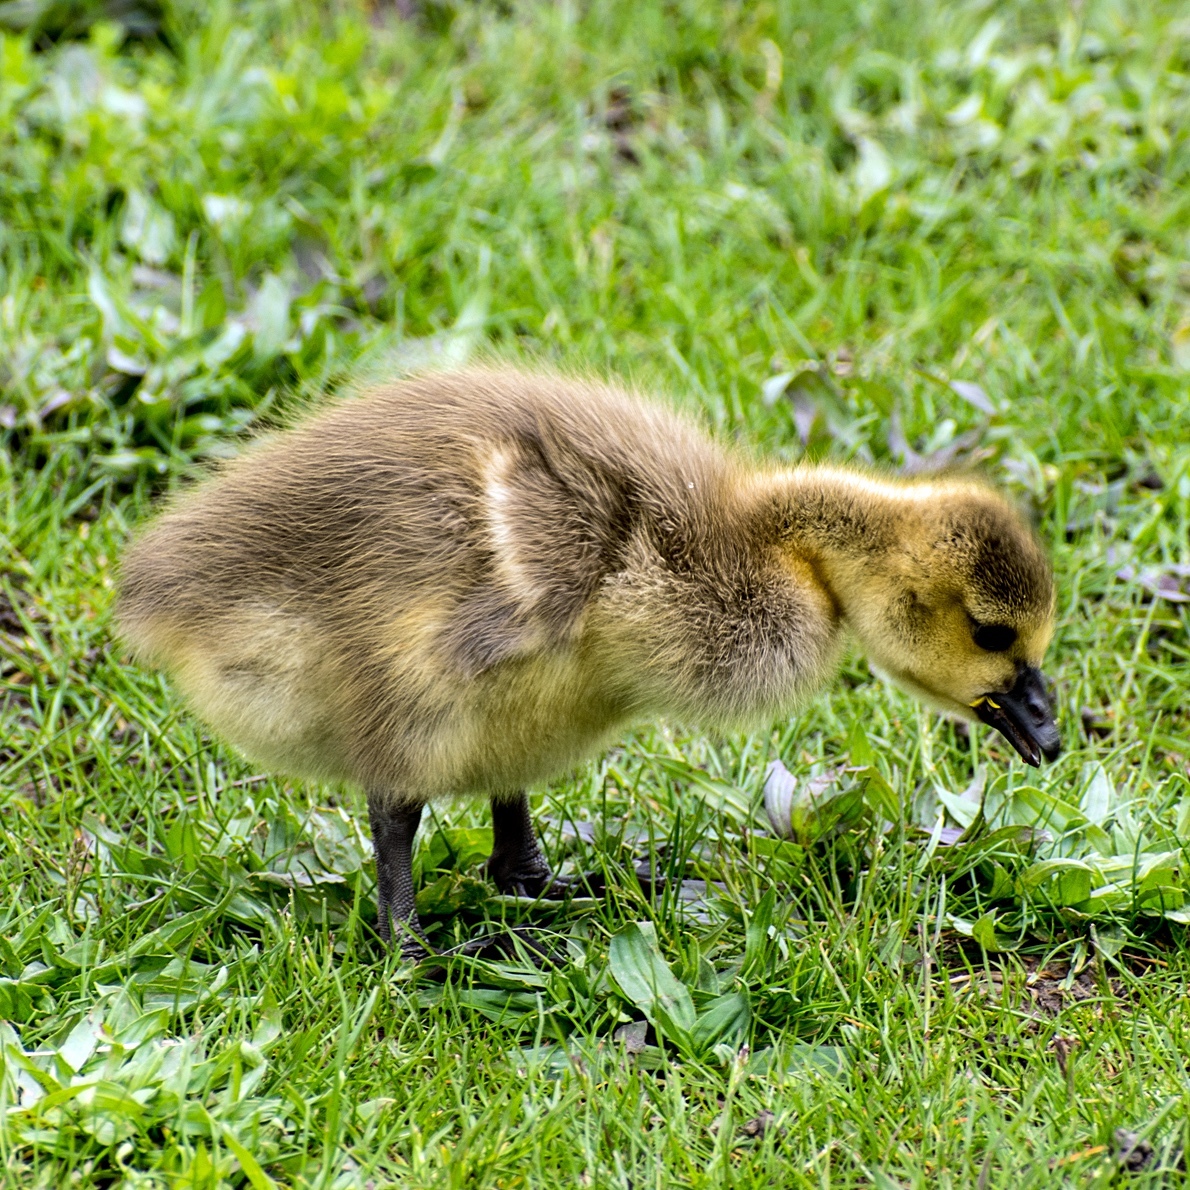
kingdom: Animalia
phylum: Chordata
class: Aves
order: Anseriformes
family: Anatidae
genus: Branta
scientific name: Branta canadensis
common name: Canada goose
